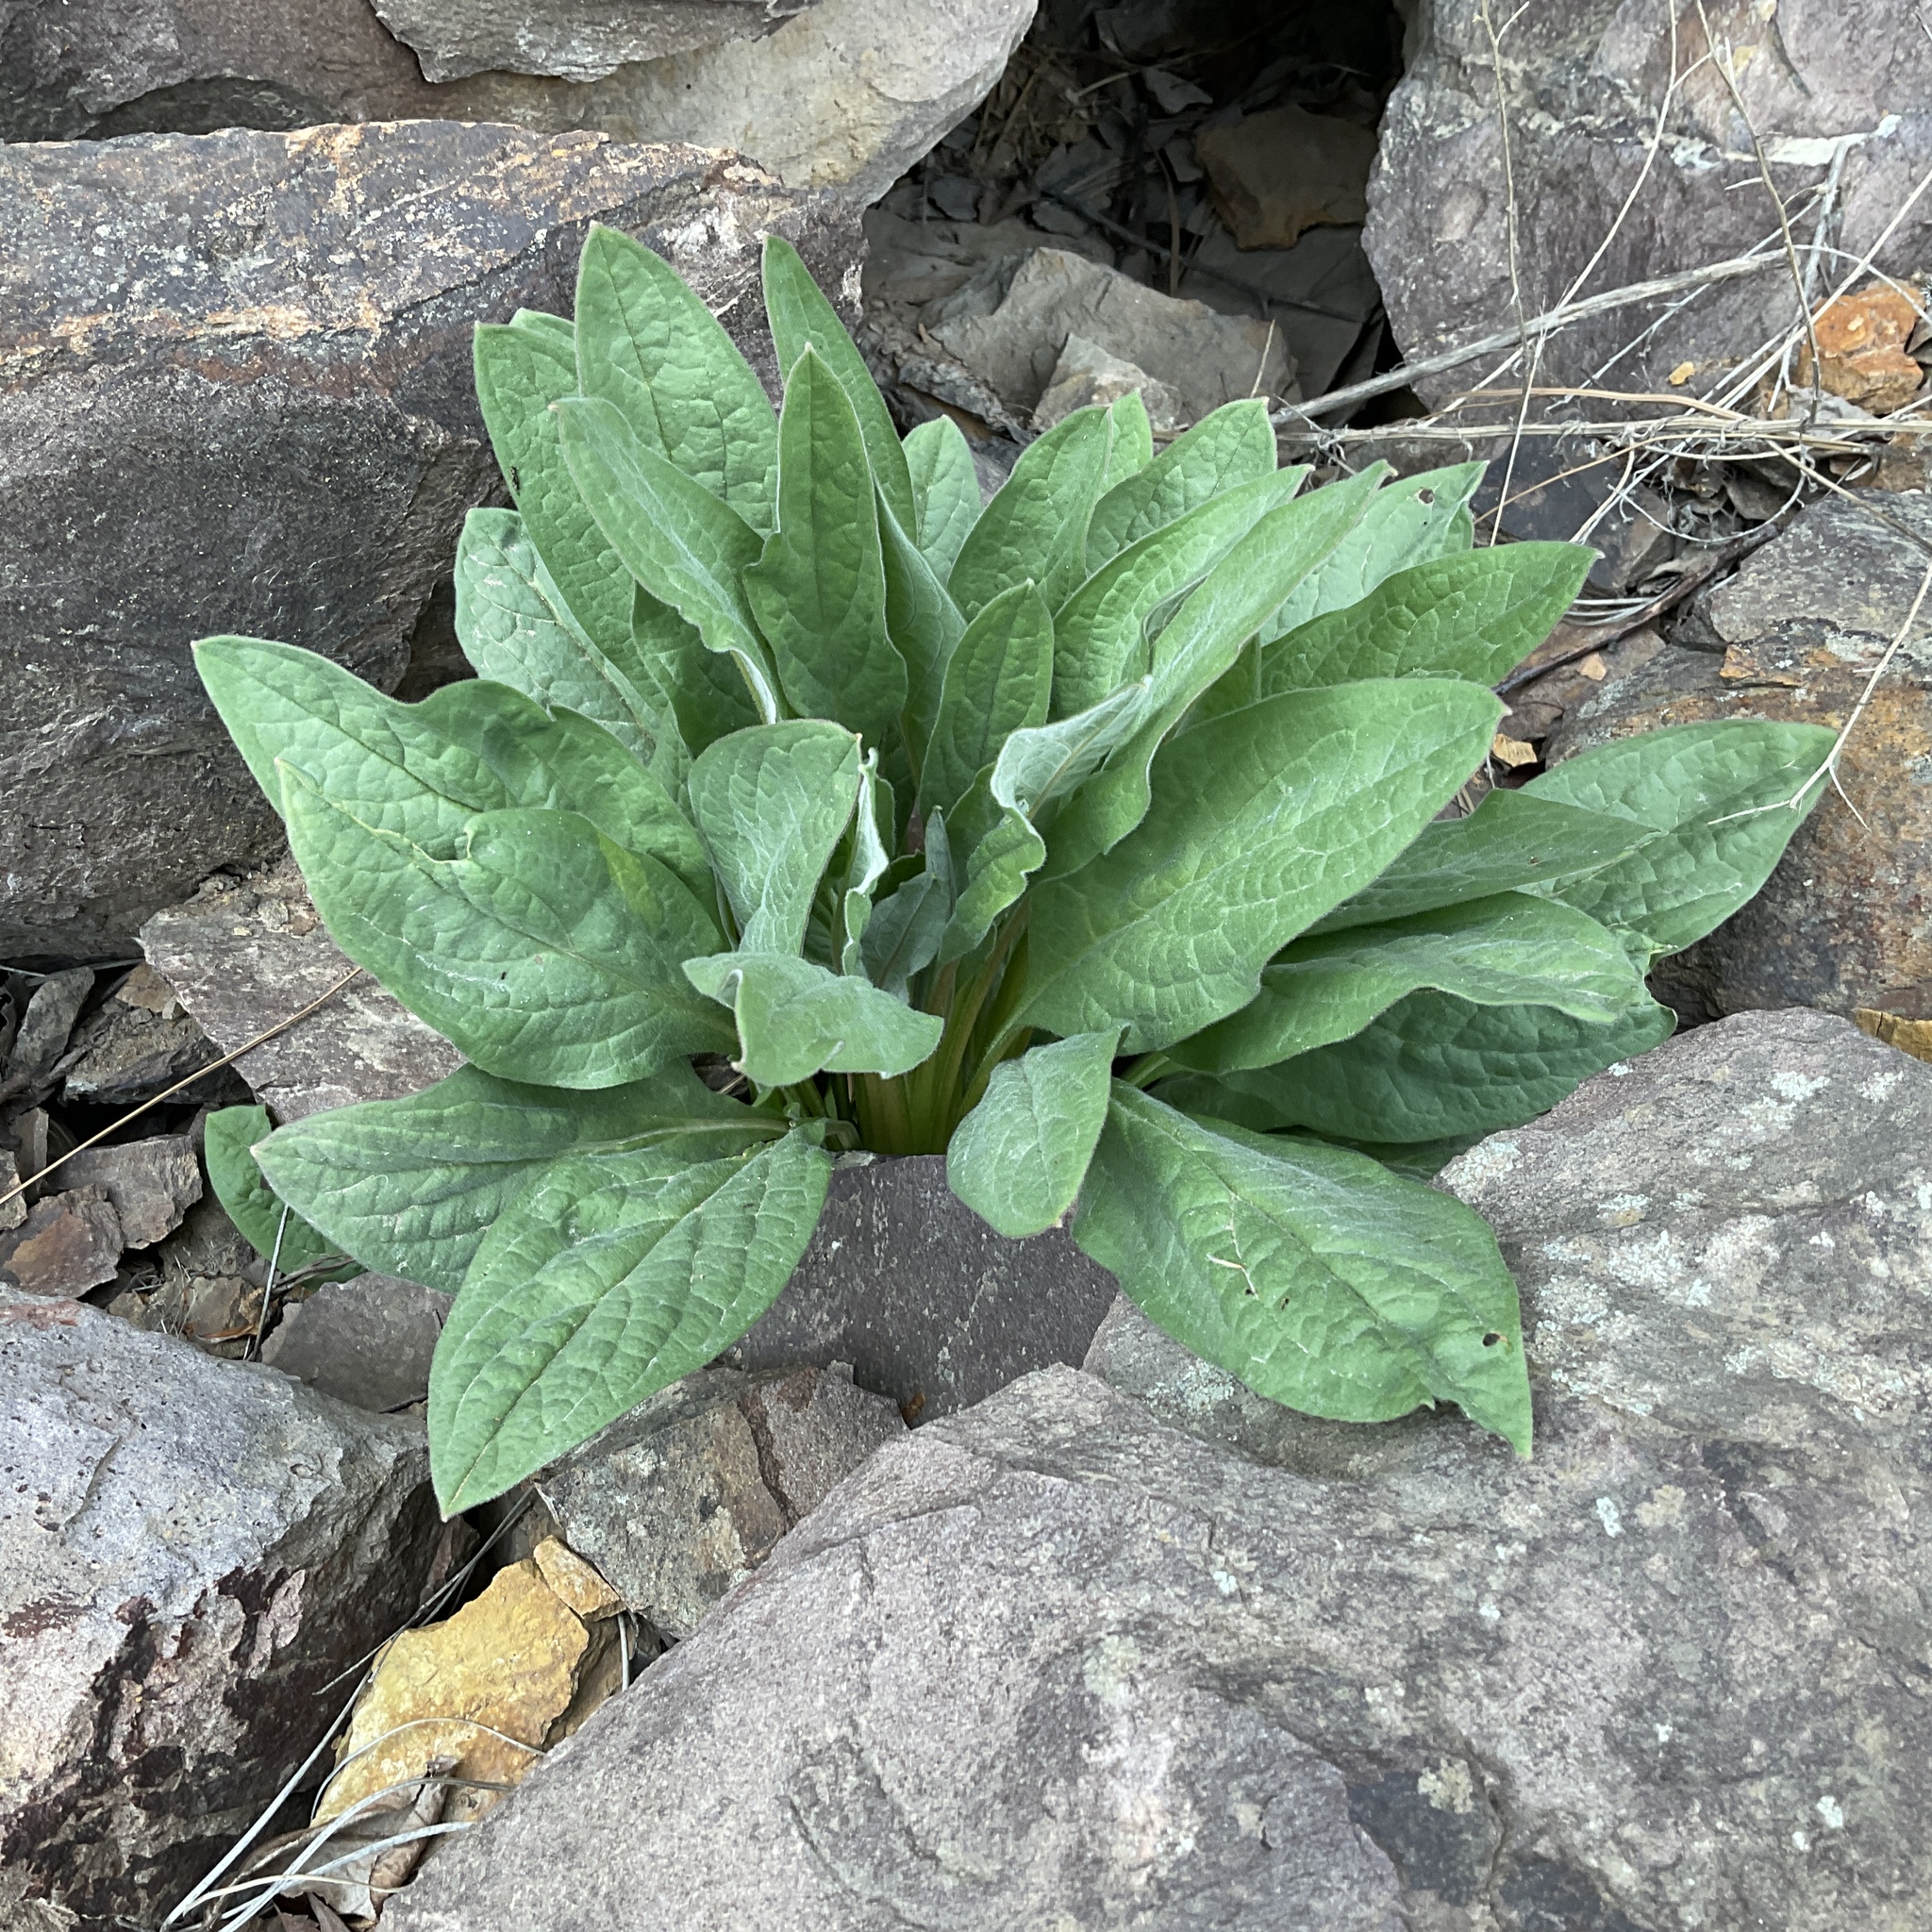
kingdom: Plantae
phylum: Tracheophyta
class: Magnoliopsida
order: Boraginales
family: Boraginaceae
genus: Cynoglossum
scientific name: Cynoglossum officinale
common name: Hound's-tongue
